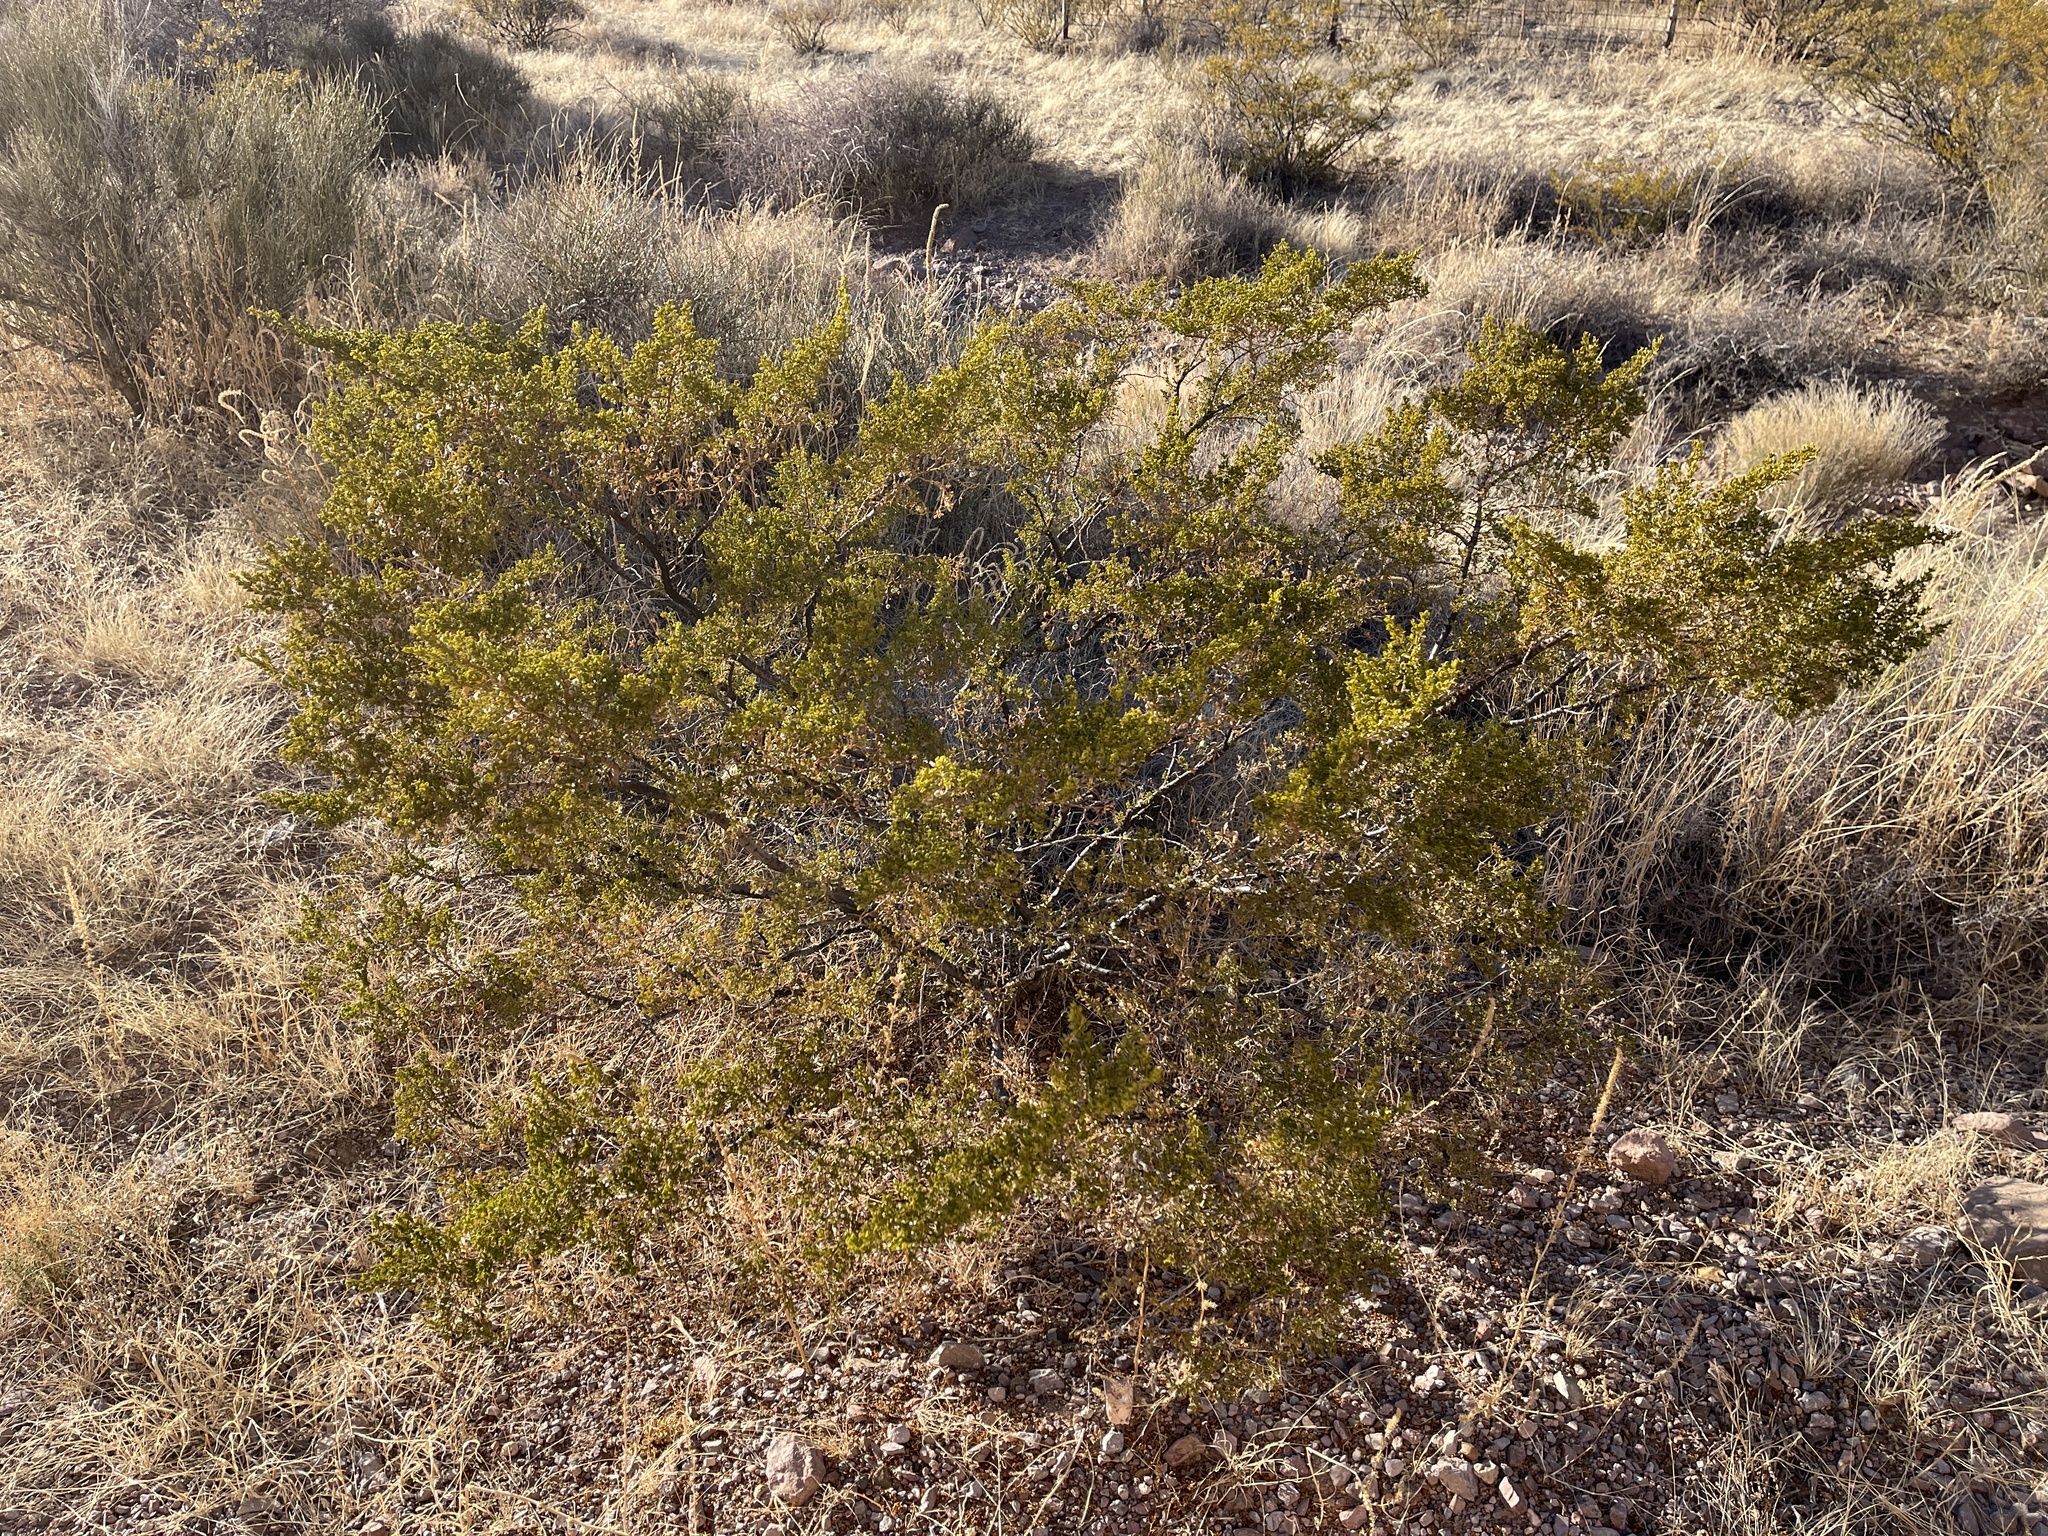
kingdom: Plantae
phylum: Tracheophyta
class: Magnoliopsida
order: Zygophyllales
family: Zygophyllaceae
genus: Larrea
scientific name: Larrea tridentata
